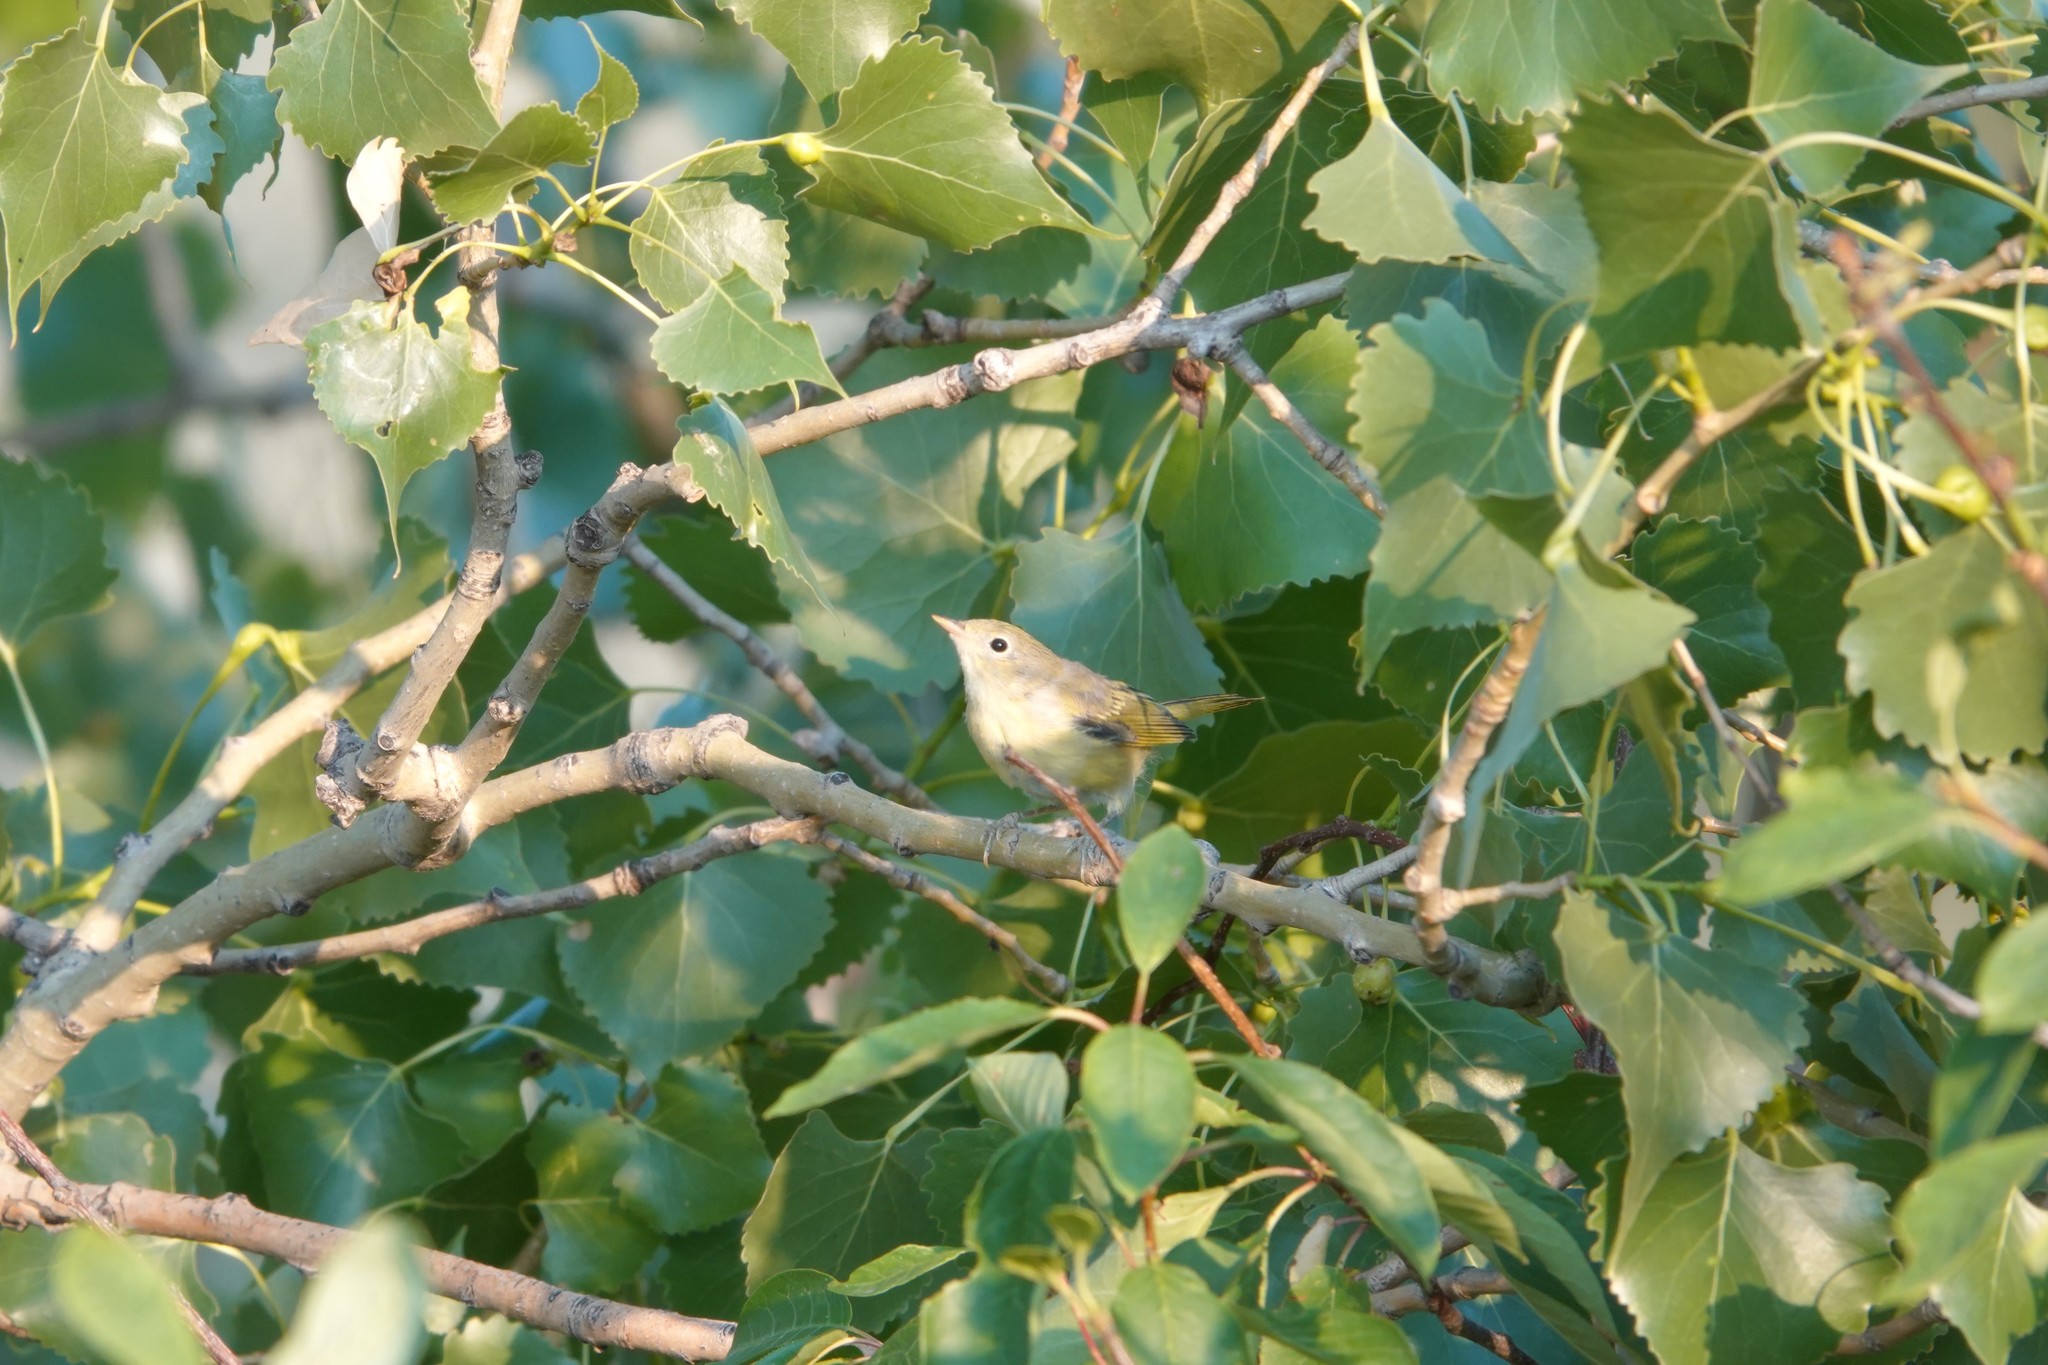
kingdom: Animalia
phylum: Chordata
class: Aves
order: Passeriformes
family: Parulidae
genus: Setophaga
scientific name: Setophaga petechia
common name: Yellow warbler
